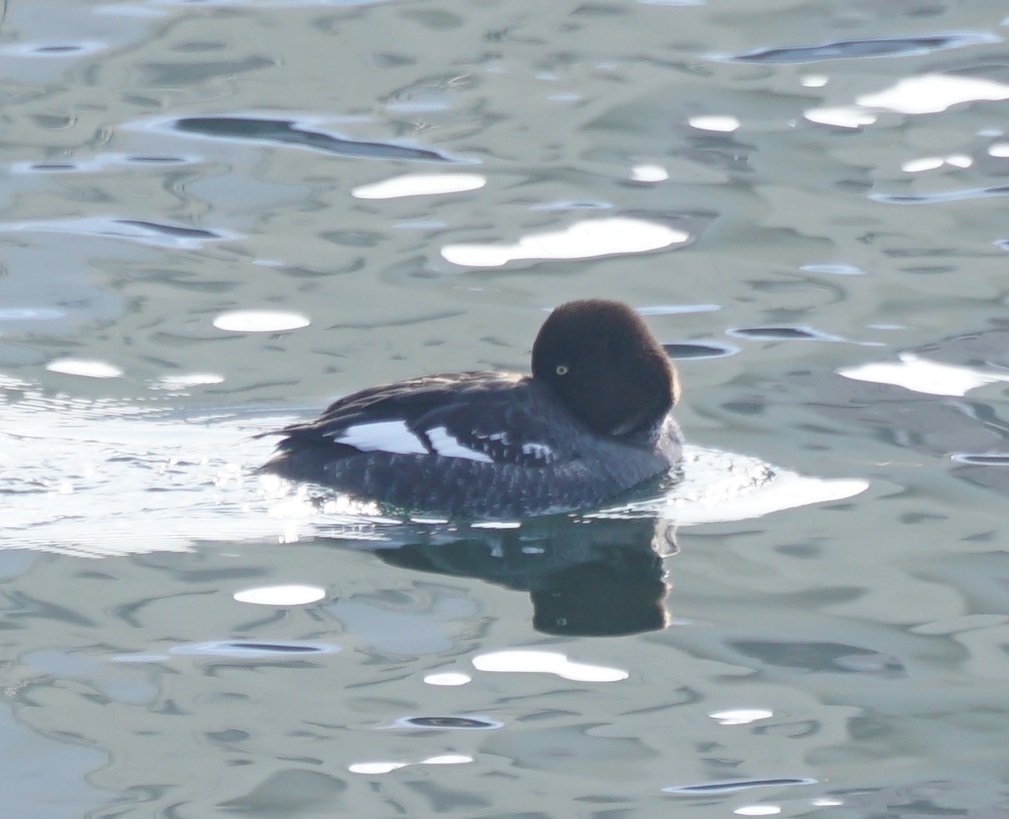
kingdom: Animalia
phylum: Chordata
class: Aves
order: Anseriformes
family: Anatidae
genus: Bucephala
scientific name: Bucephala clangula
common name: Common goldeneye
